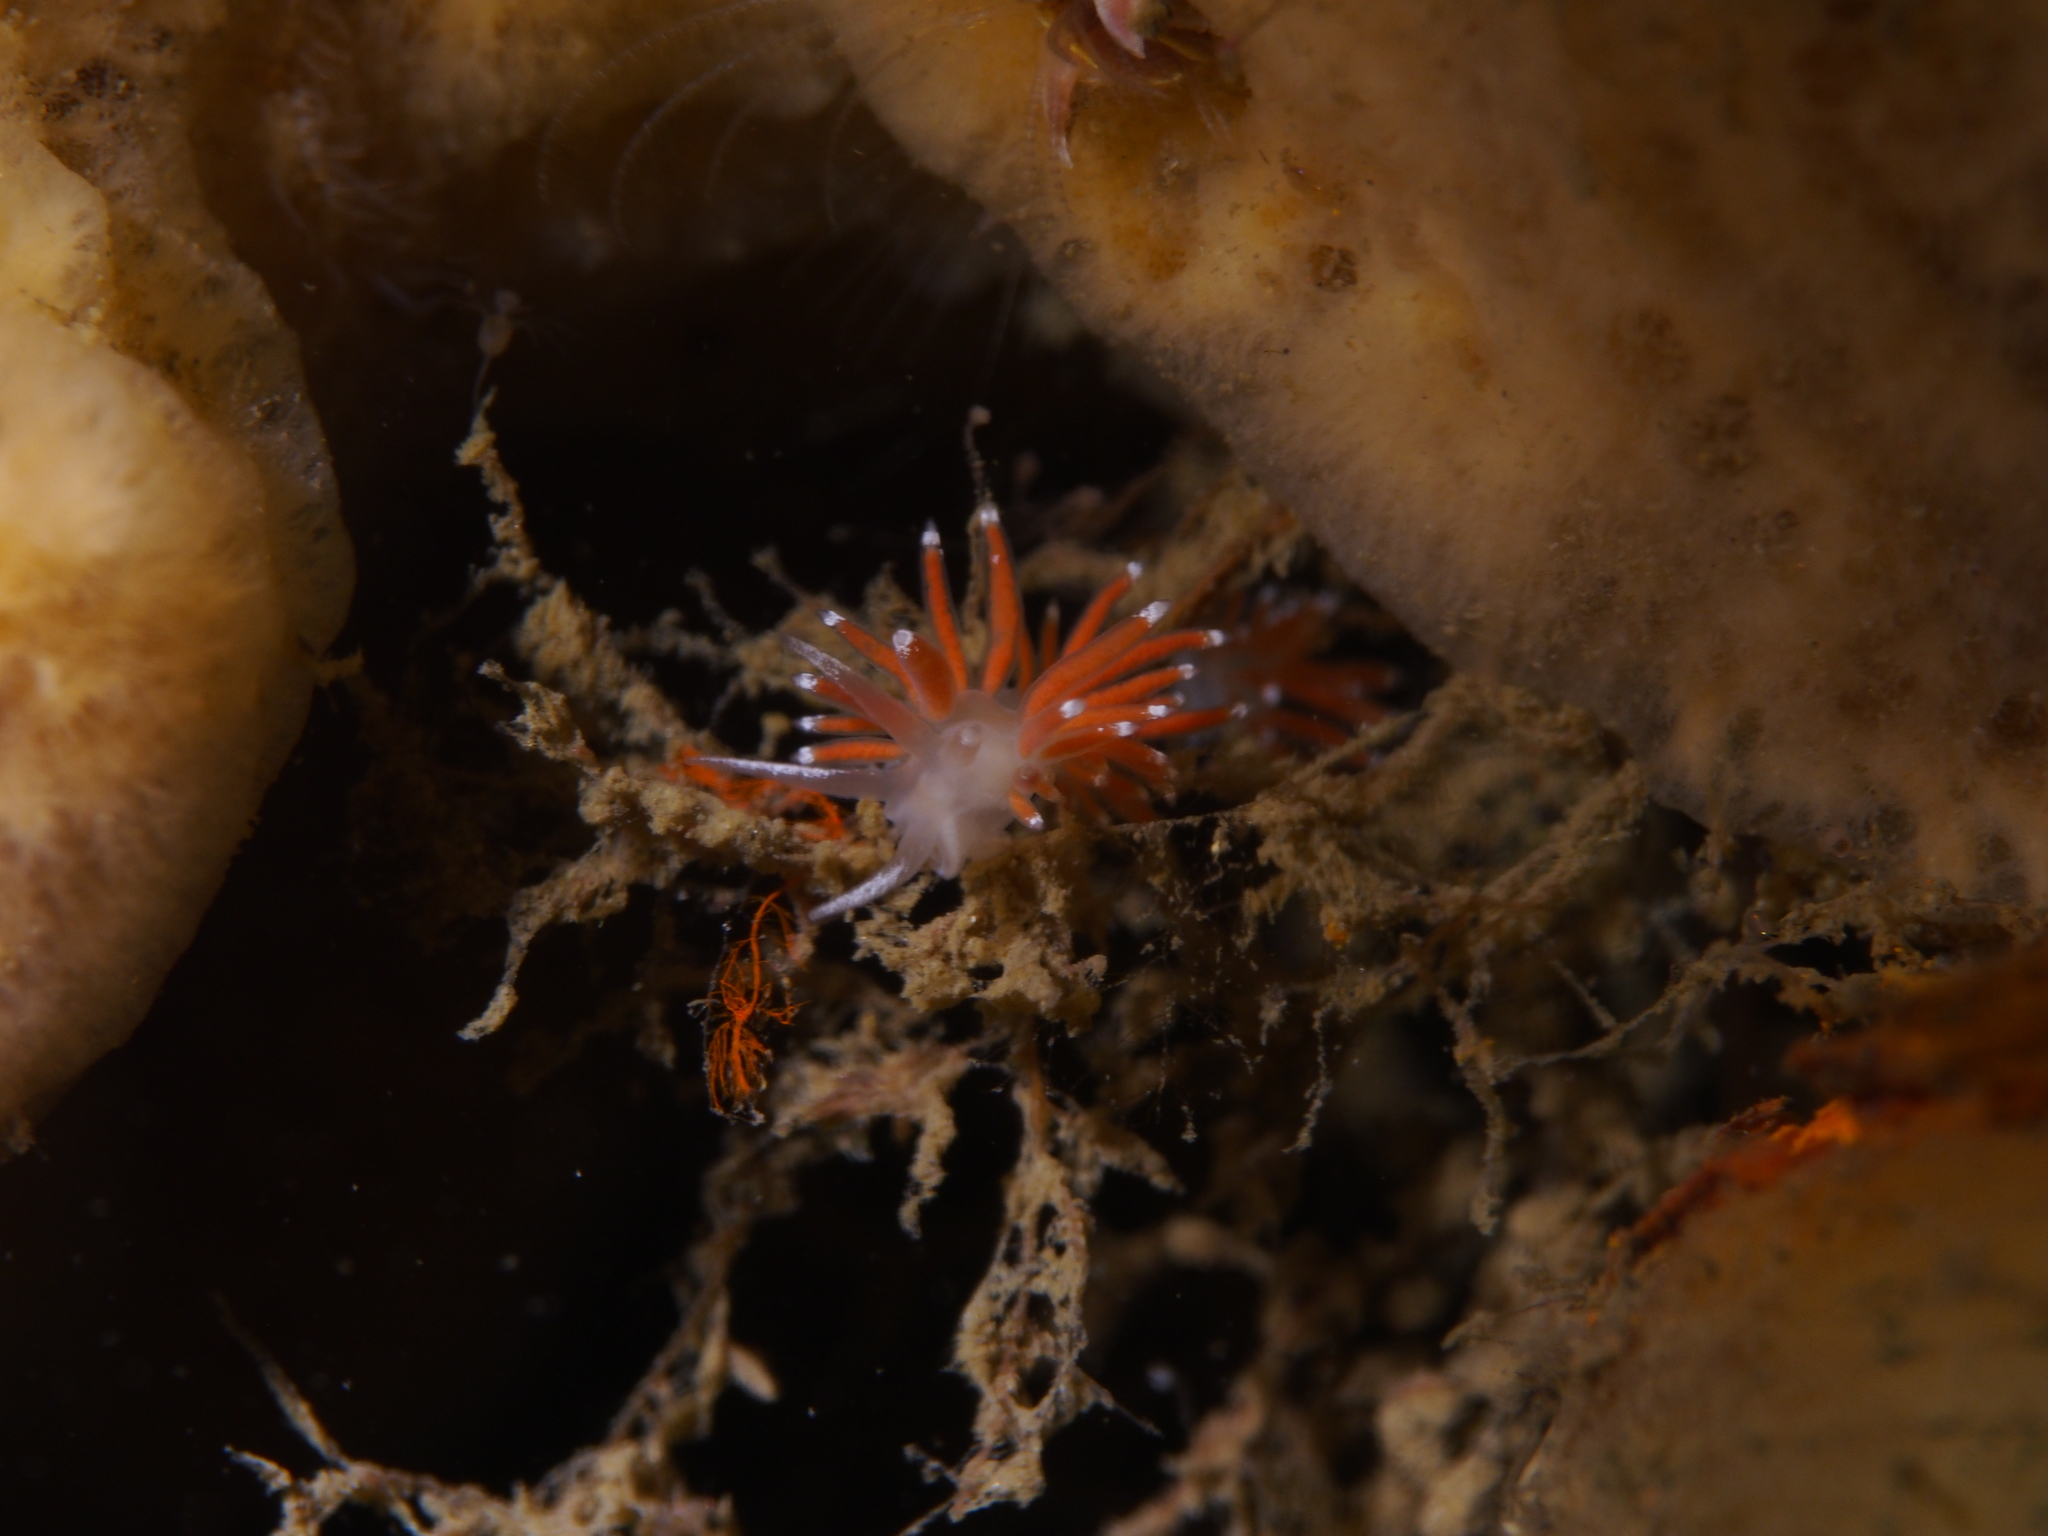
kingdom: Animalia
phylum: Mollusca
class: Gastropoda
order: Nudibranchia
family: Coryphellidae
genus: Coryphella
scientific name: Coryphella gracilis
